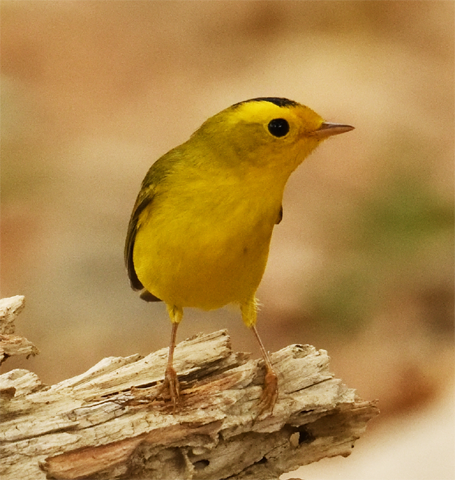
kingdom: Animalia
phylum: Chordata
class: Aves
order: Passeriformes
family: Parulidae
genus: Cardellina
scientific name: Cardellina pusilla
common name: Wilson's warbler
